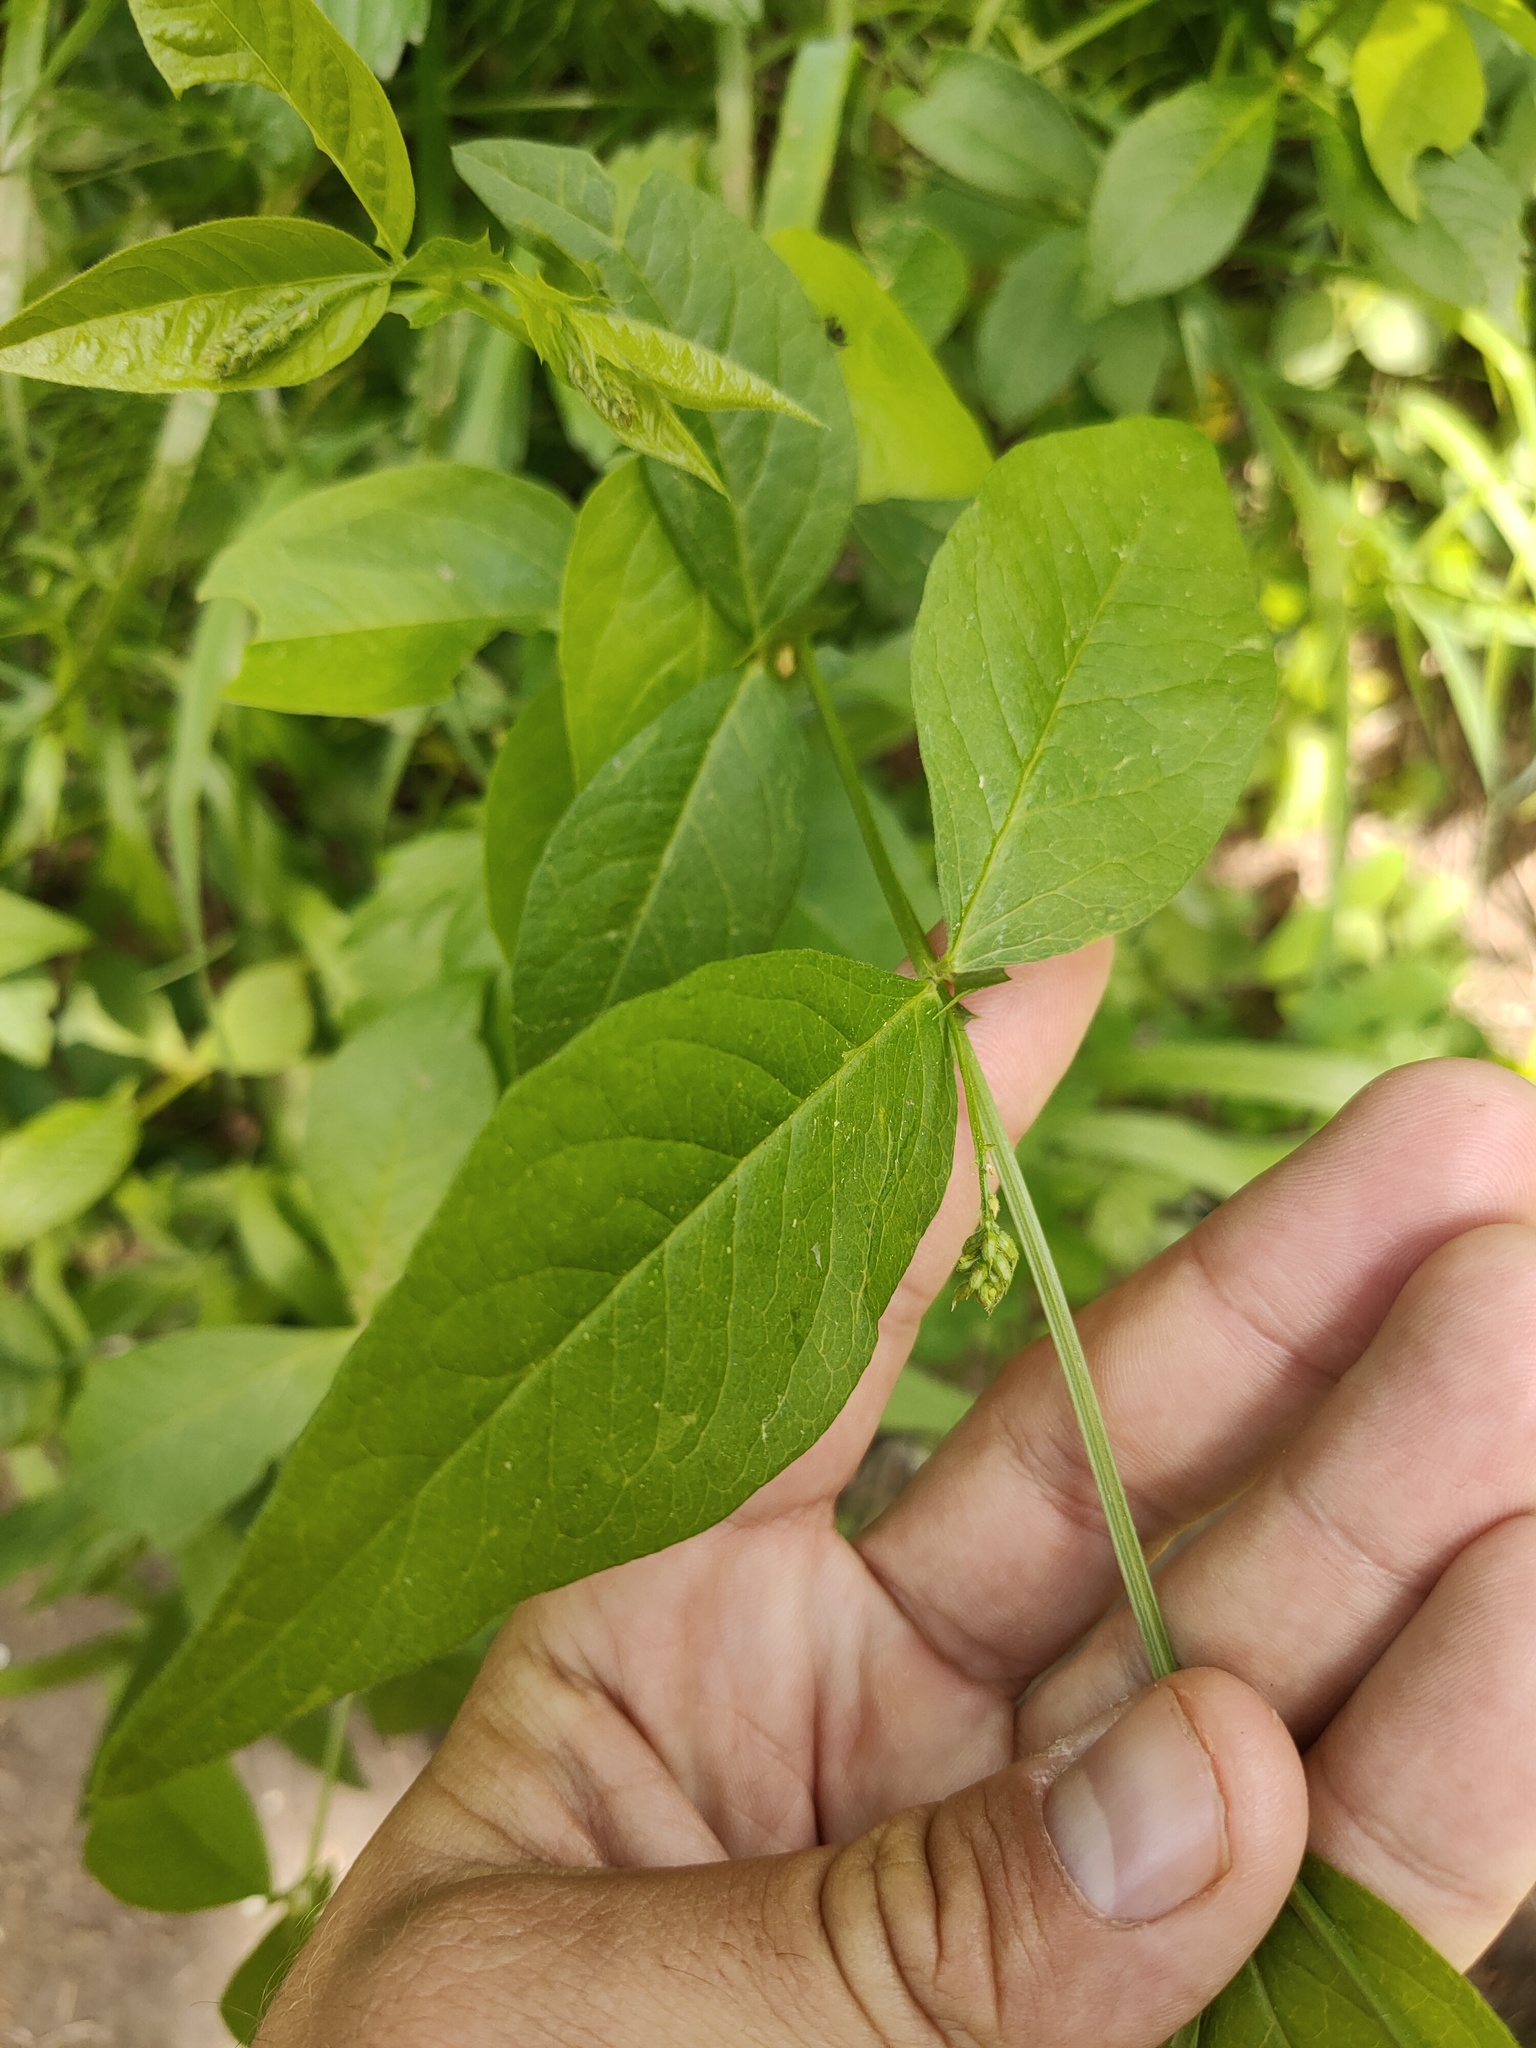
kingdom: Plantae
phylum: Tracheophyta
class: Magnoliopsida
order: Fabales
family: Fabaceae
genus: Vicia
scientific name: Vicia unijuga
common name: Two-leaf vetch
